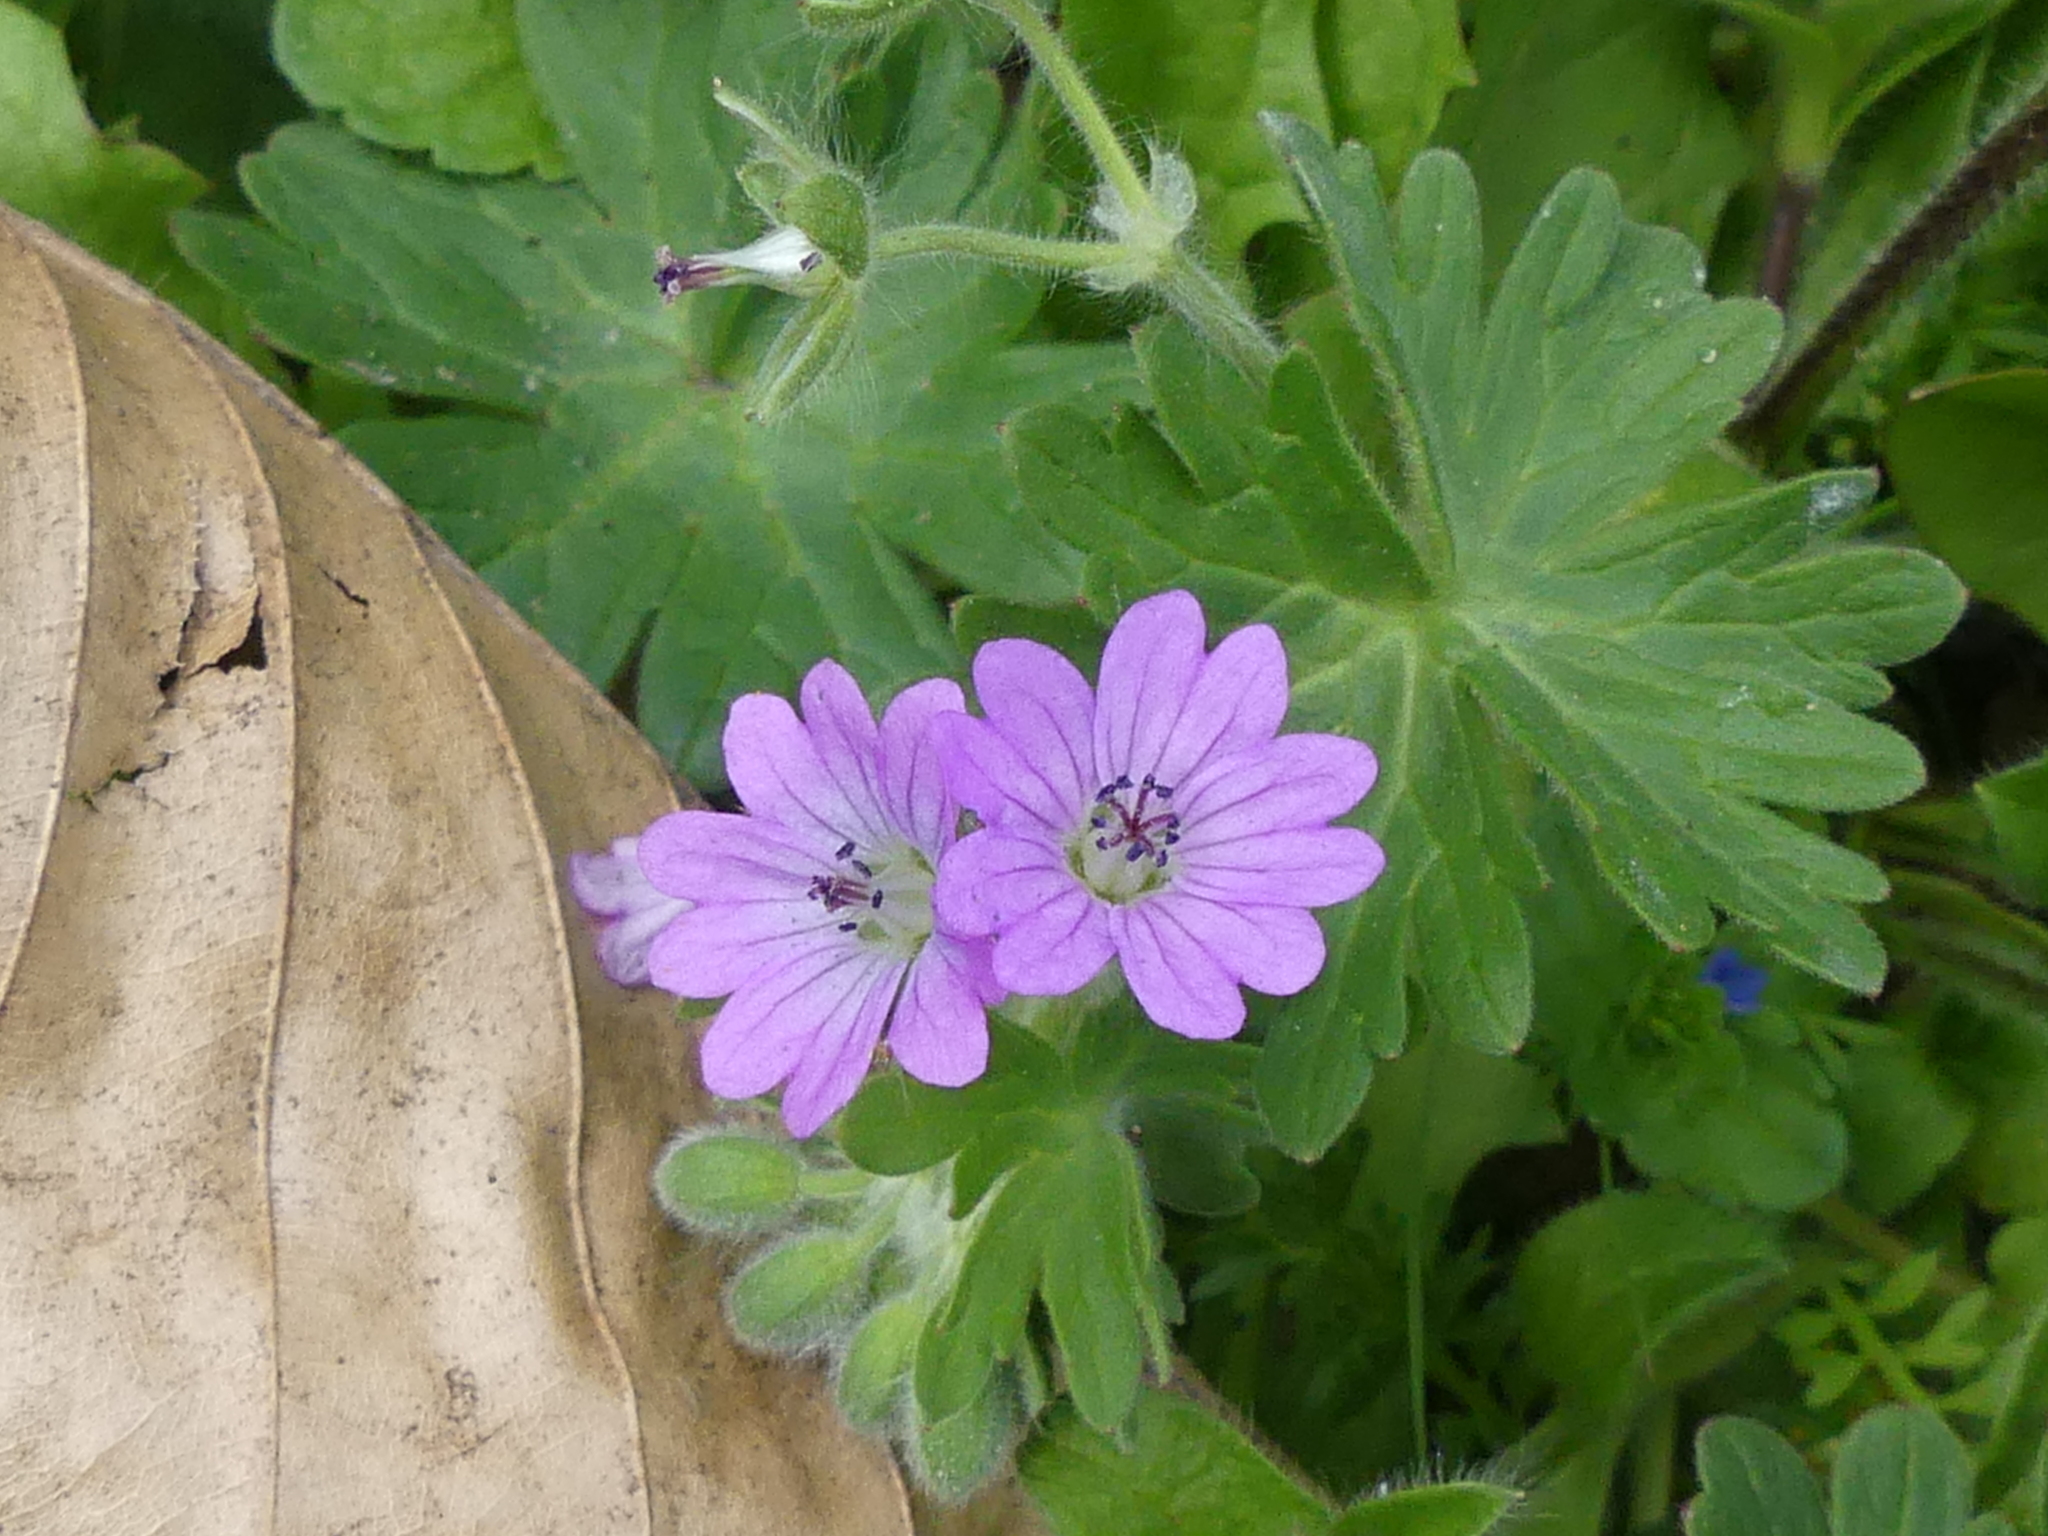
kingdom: Plantae
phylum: Tracheophyta
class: Magnoliopsida
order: Geraniales
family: Geraniaceae
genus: Geranium
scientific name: Geranium molle
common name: Dove's-foot crane's-bill
